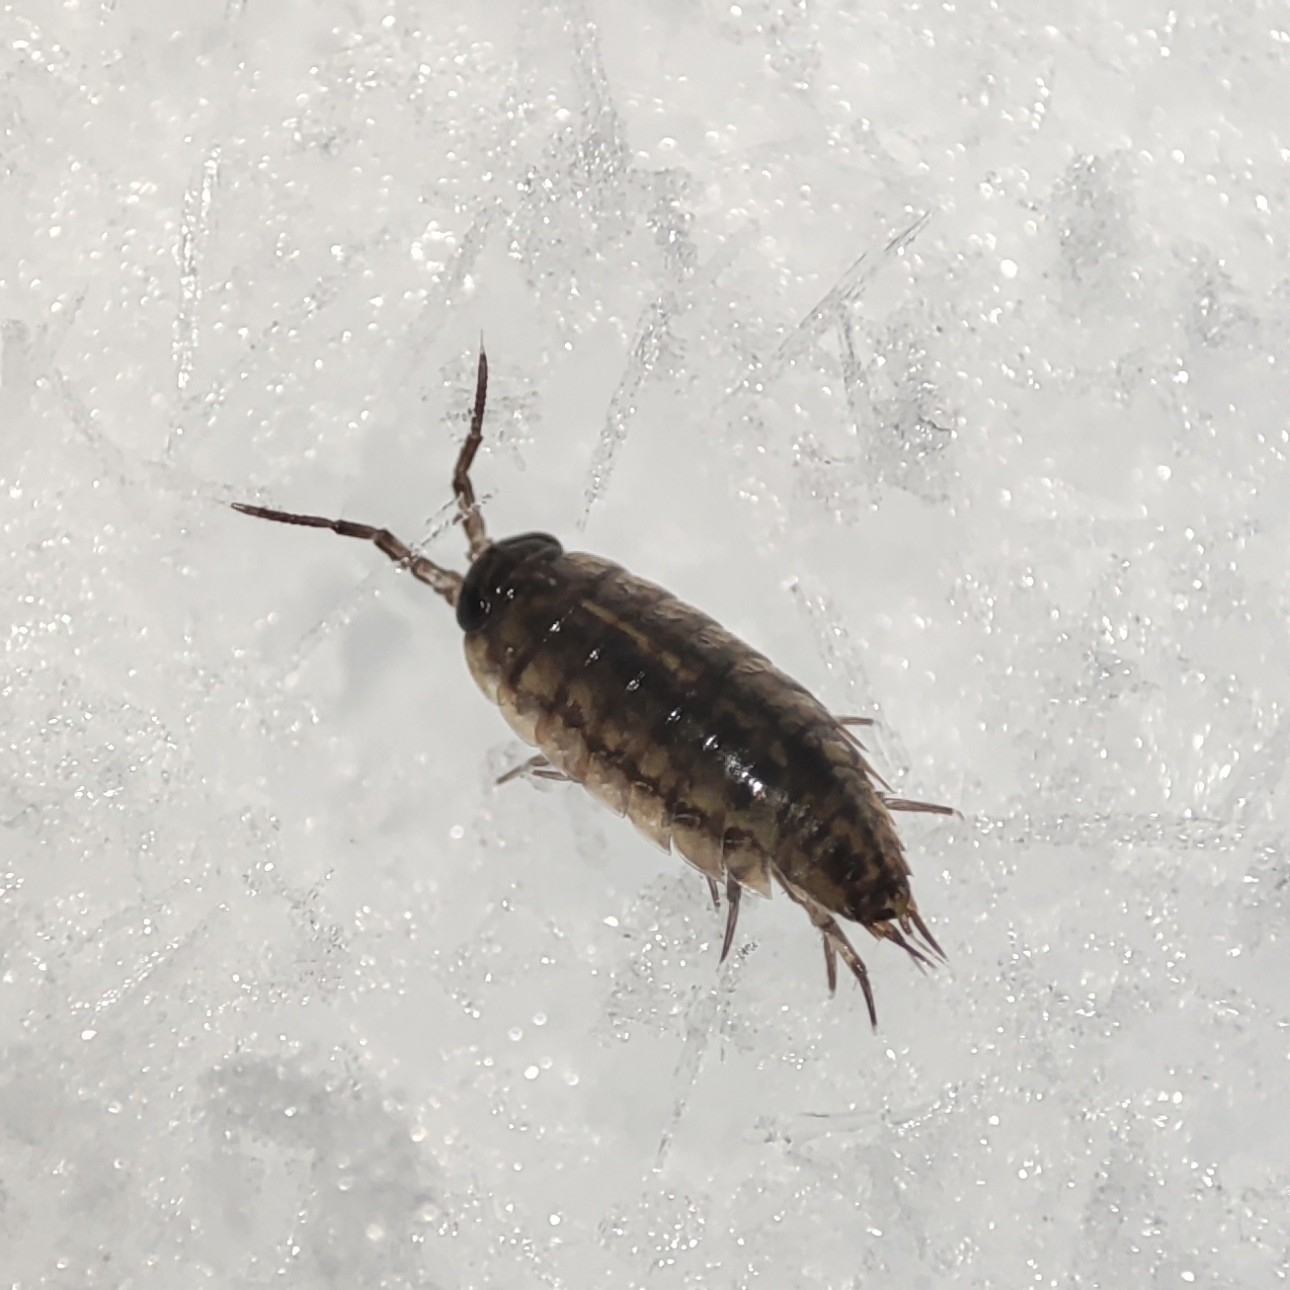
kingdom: Animalia
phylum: Arthropoda
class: Malacostraca
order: Isopoda
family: Ligiidae
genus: Ligidium
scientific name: Ligidium hypnorum
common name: Moss slater
